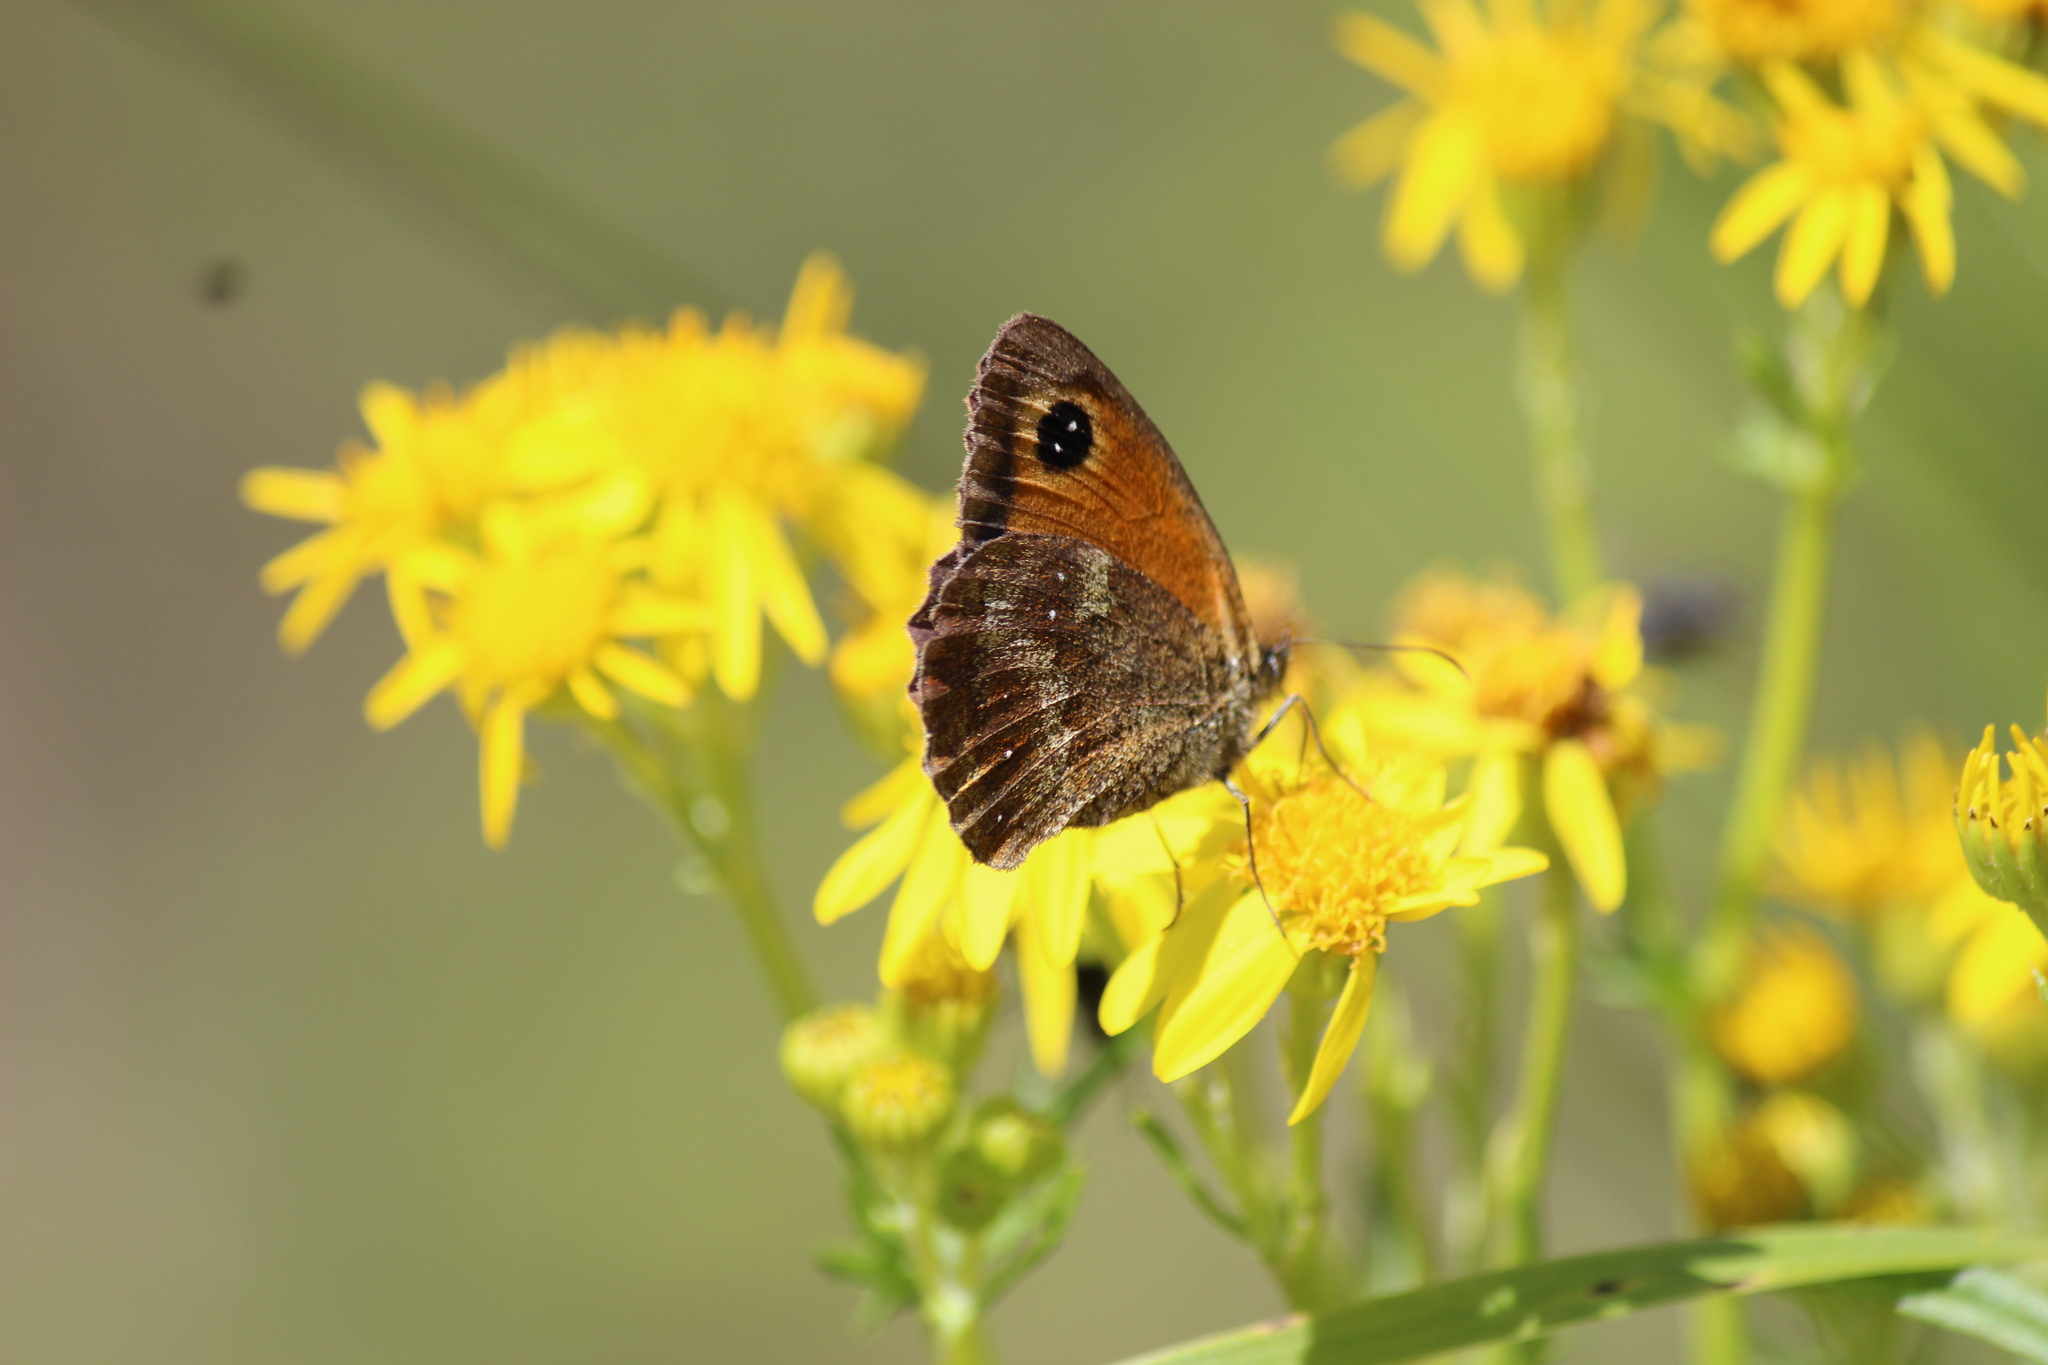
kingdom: Animalia
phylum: Arthropoda
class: Insecta
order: Lepidoptera
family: Nymphalidae
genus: Pyronia
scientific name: Pyronia tithonus
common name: Gatekeeper
